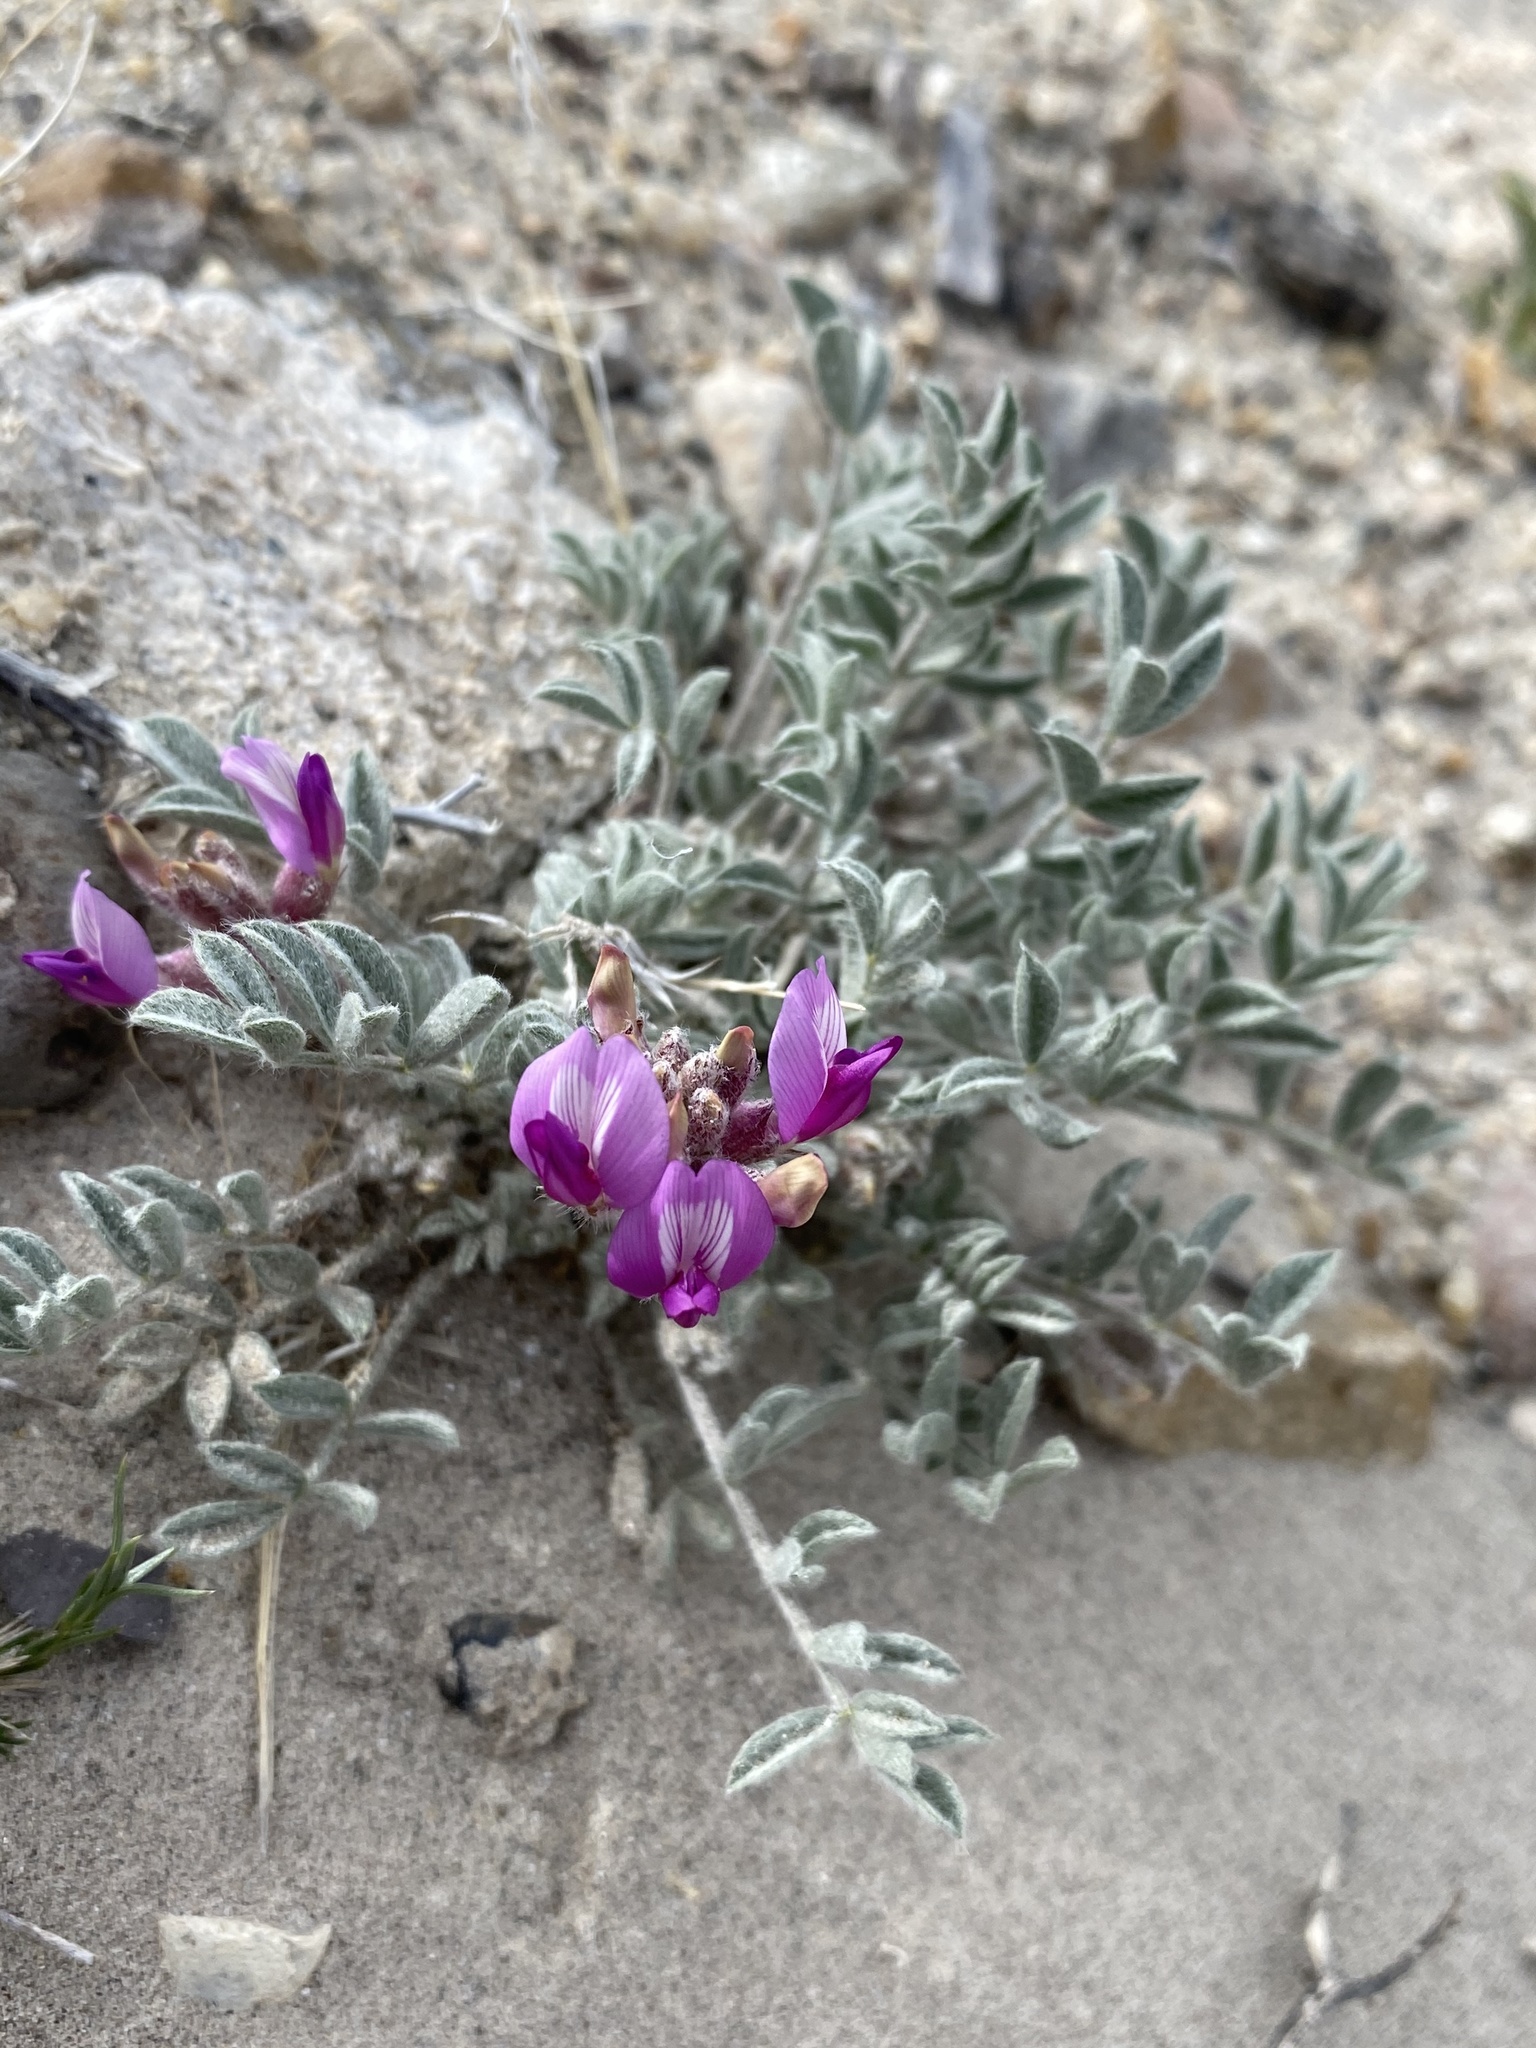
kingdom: Plantae
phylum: Tracheophyta
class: Magnoliopsida
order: Fabales
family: Fabaceae
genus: Astragalus
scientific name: Astragalus purshii
